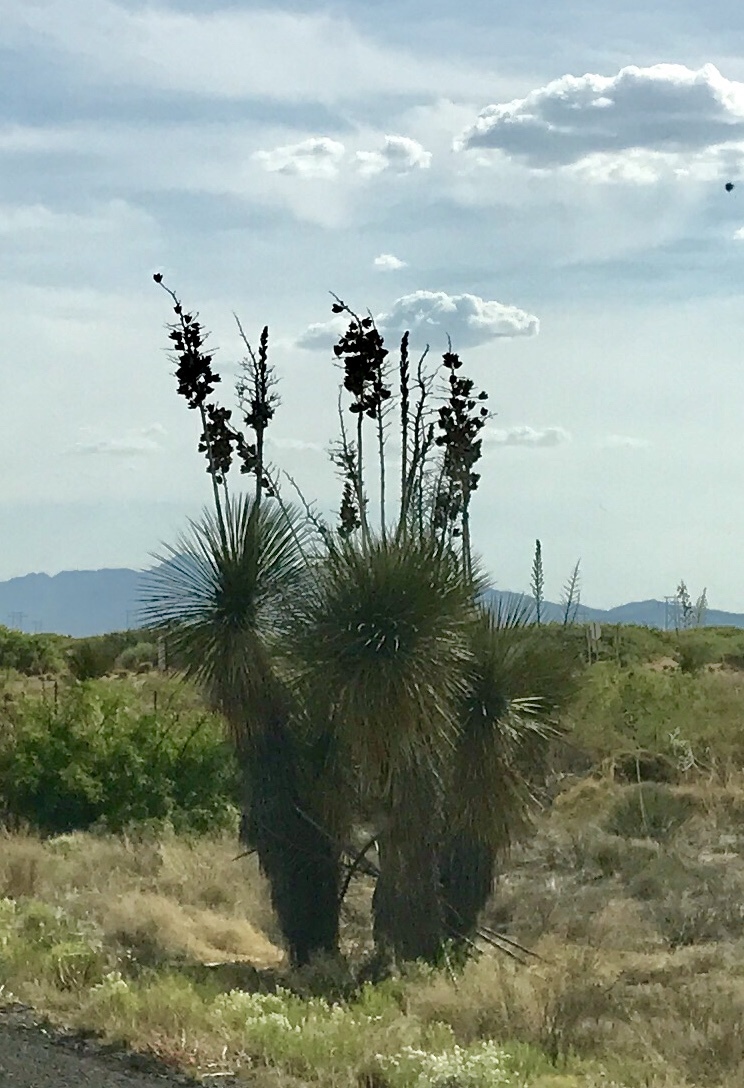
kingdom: Plantae
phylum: Tracheophyta
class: Liliopsida
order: Asparagales
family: Asparagaceae
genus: Yucca
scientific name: Yucca elata
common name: Palmella
